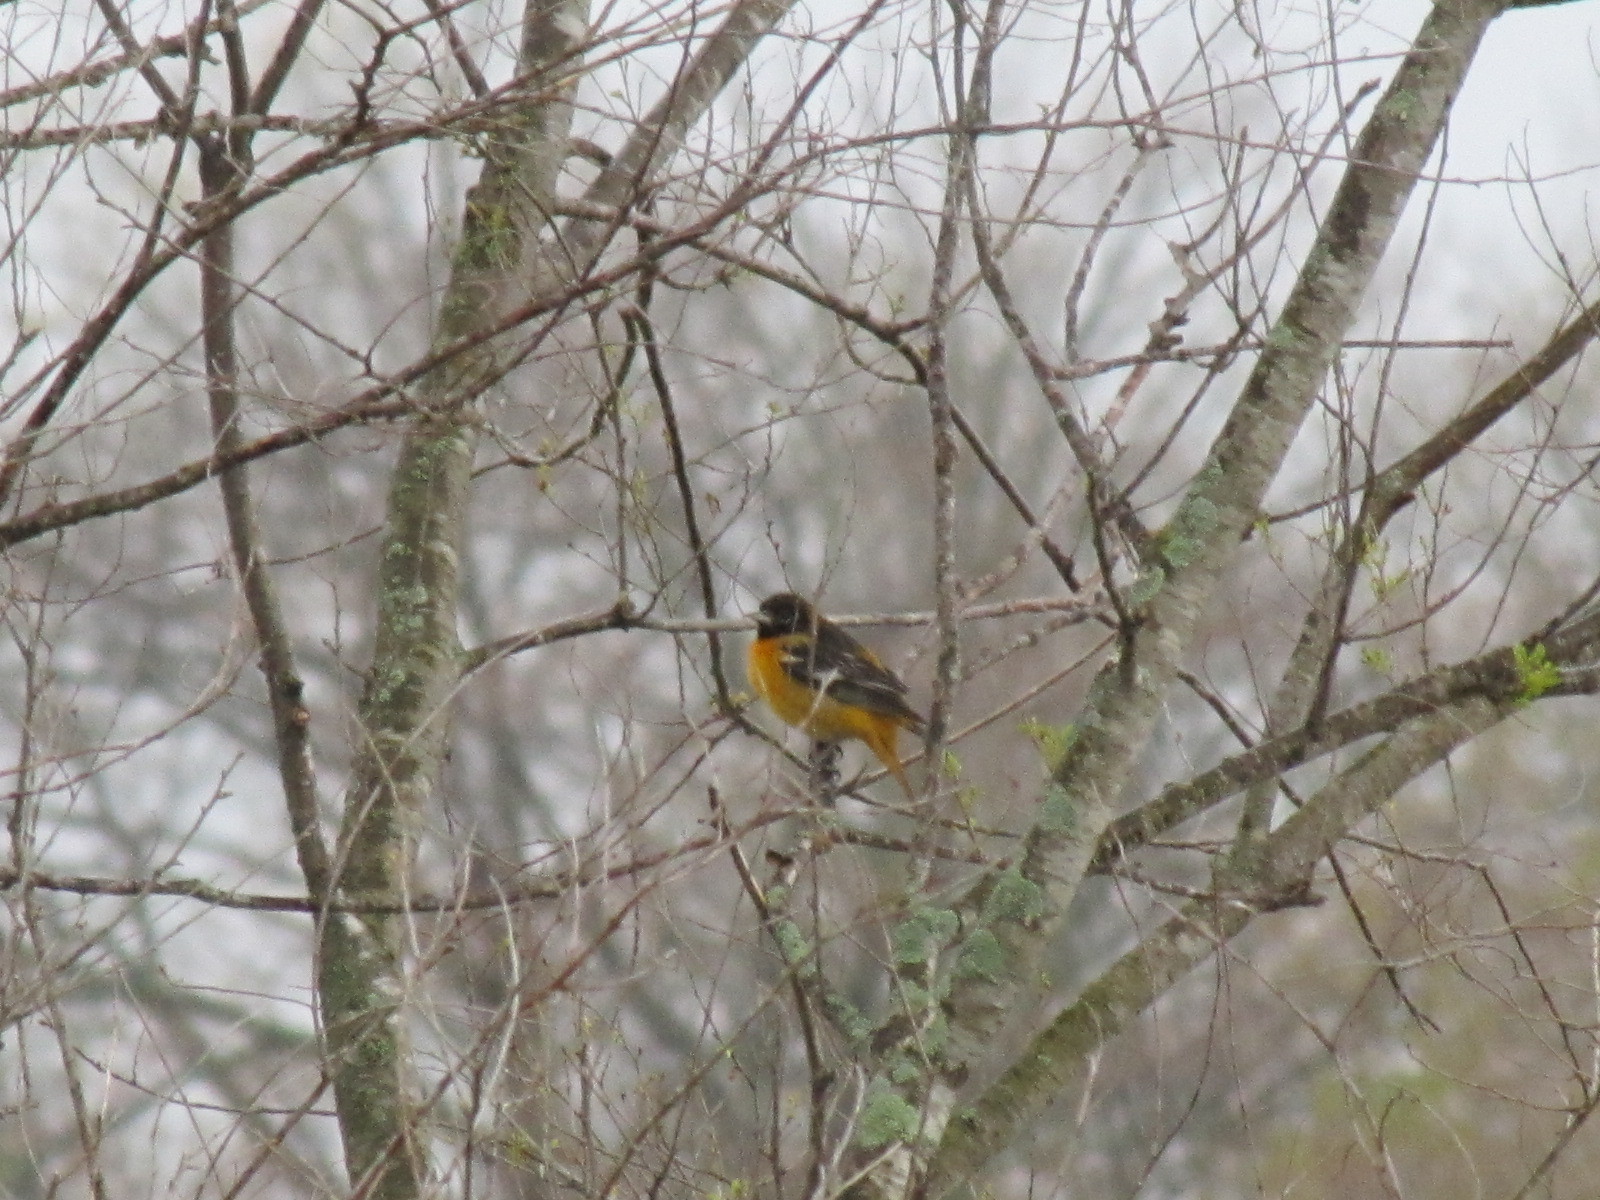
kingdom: Animalia
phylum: Chordata
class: Aves
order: Passeriformes
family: Icteridae
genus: Icterus
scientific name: Icterus galbula
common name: Baltimore oriole
